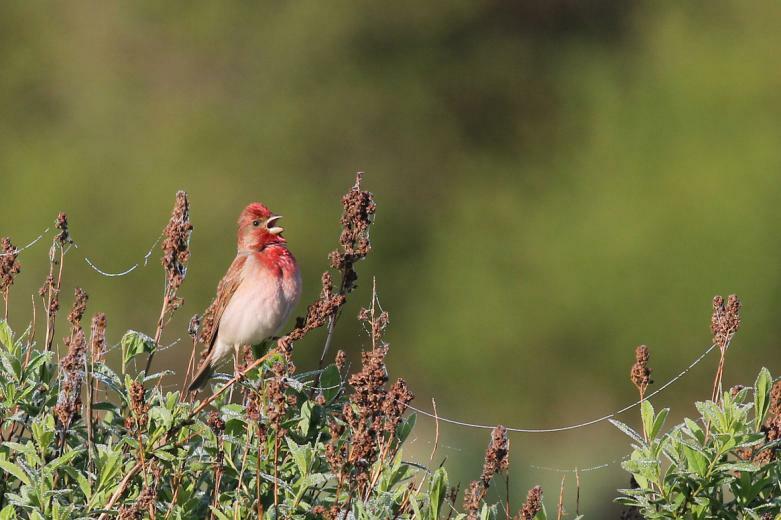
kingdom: Animalia
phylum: Chordata
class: Aves
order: Passeriformes
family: Fringillidae
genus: Carpodacus
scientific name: Carpodacus erythrinus
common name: Common rosefinch
